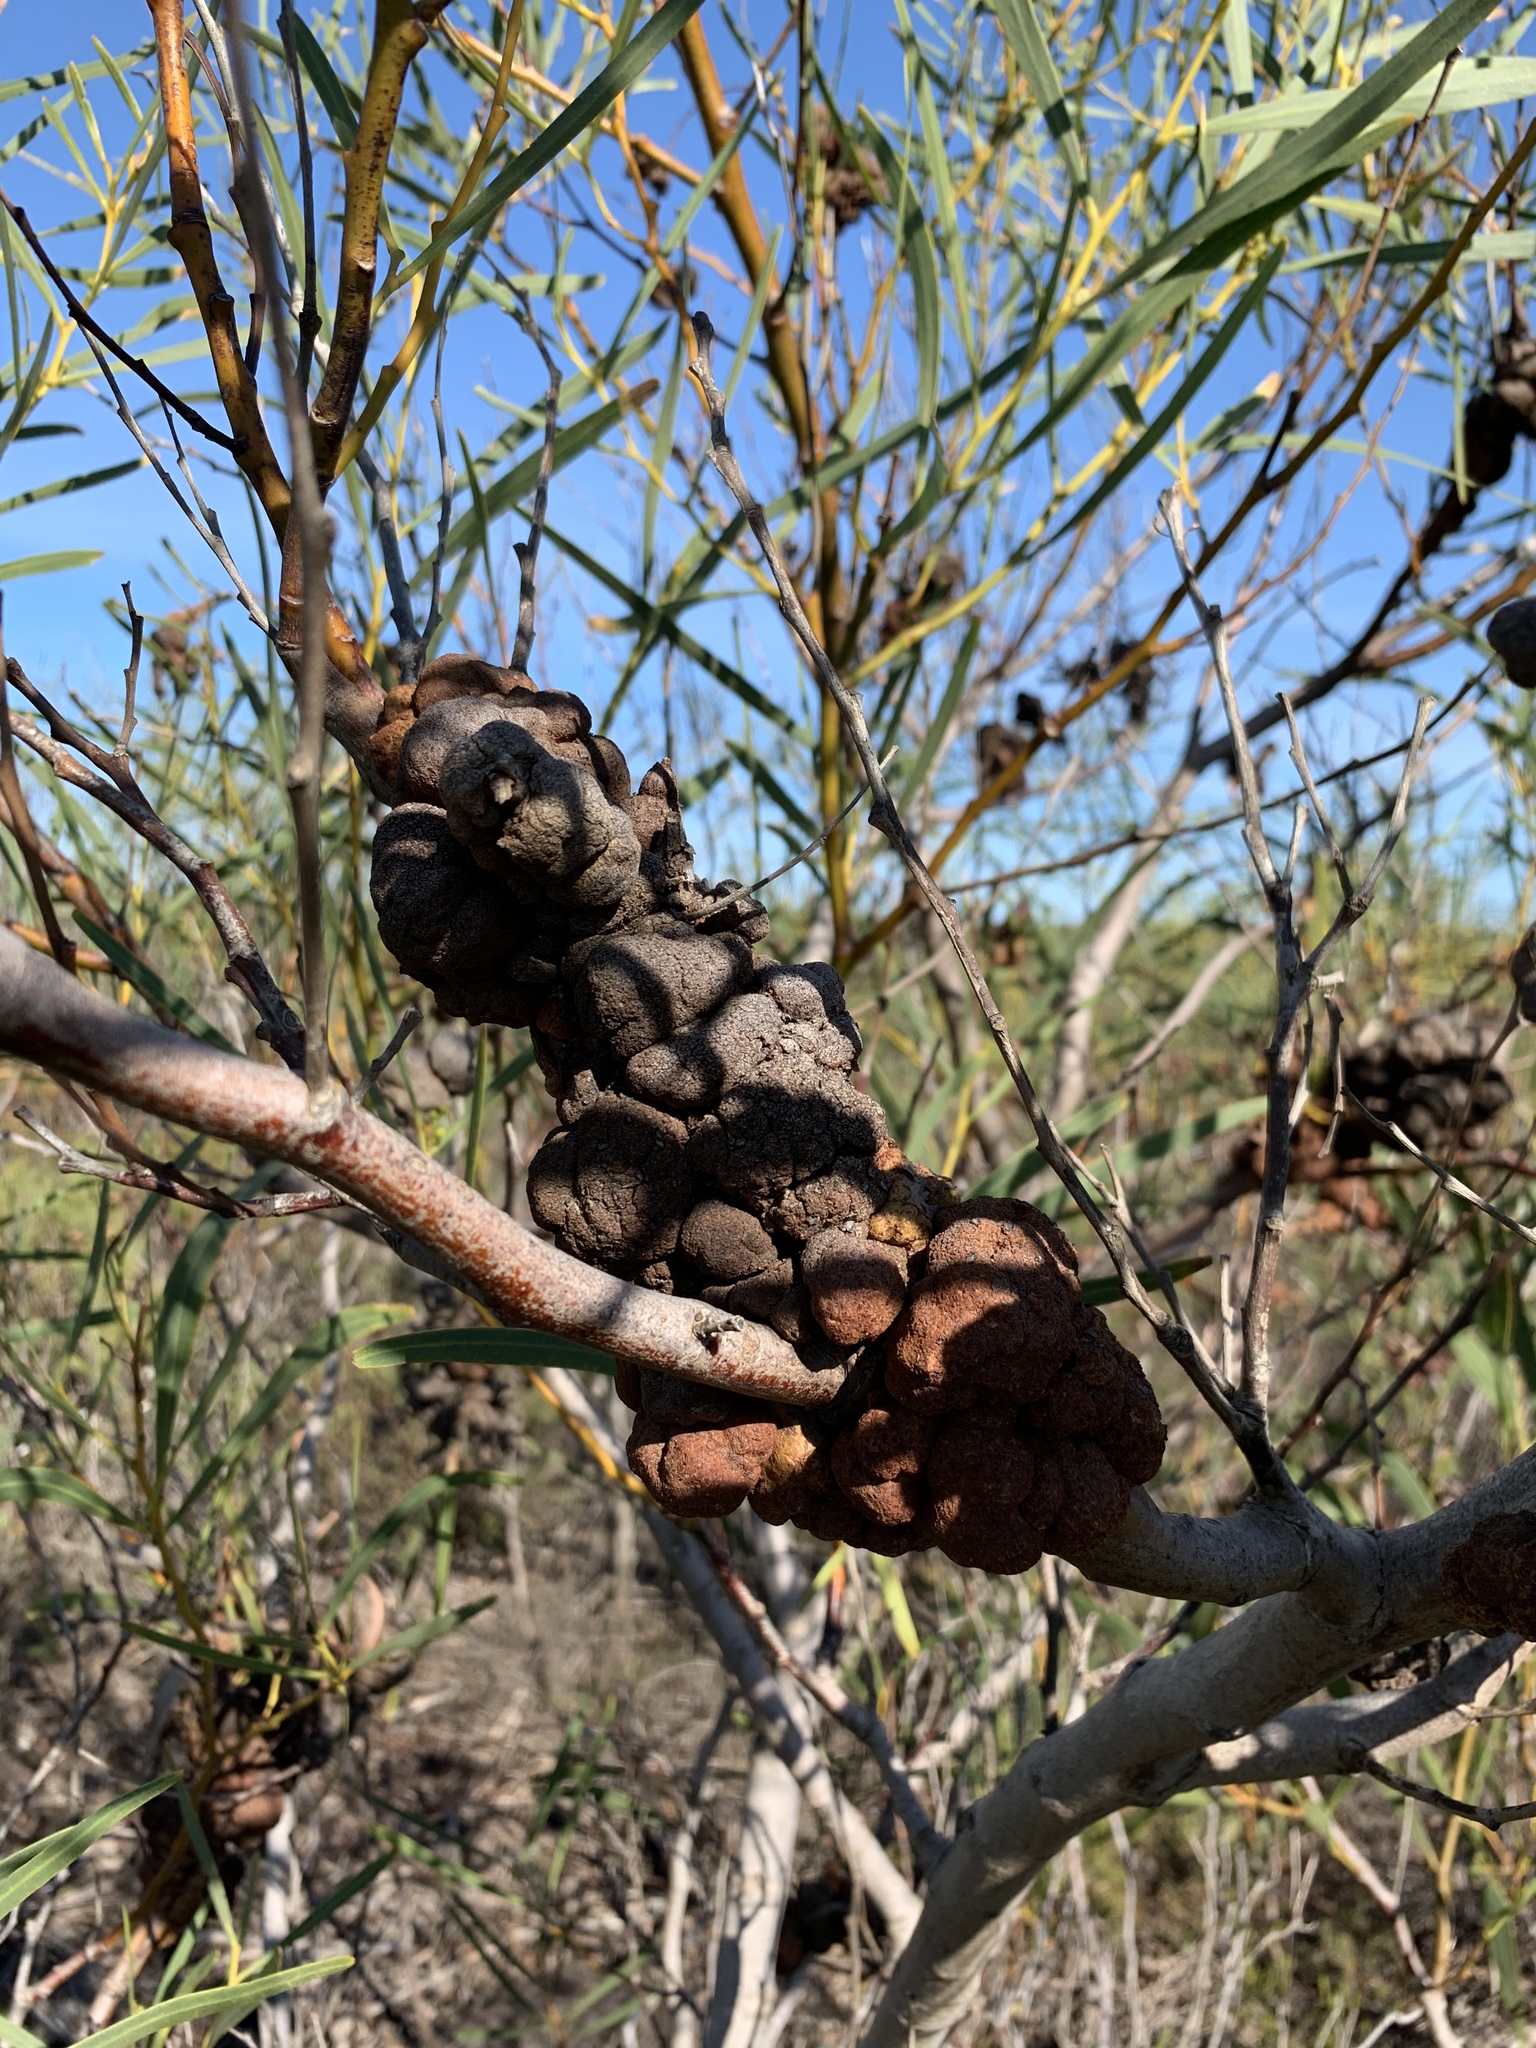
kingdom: Fungi
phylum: Basidiomycota
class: Pucciniomycetes
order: Pucciniales
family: Uromycladiaceae
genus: Uromycladium
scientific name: Uromycladium morrisii
